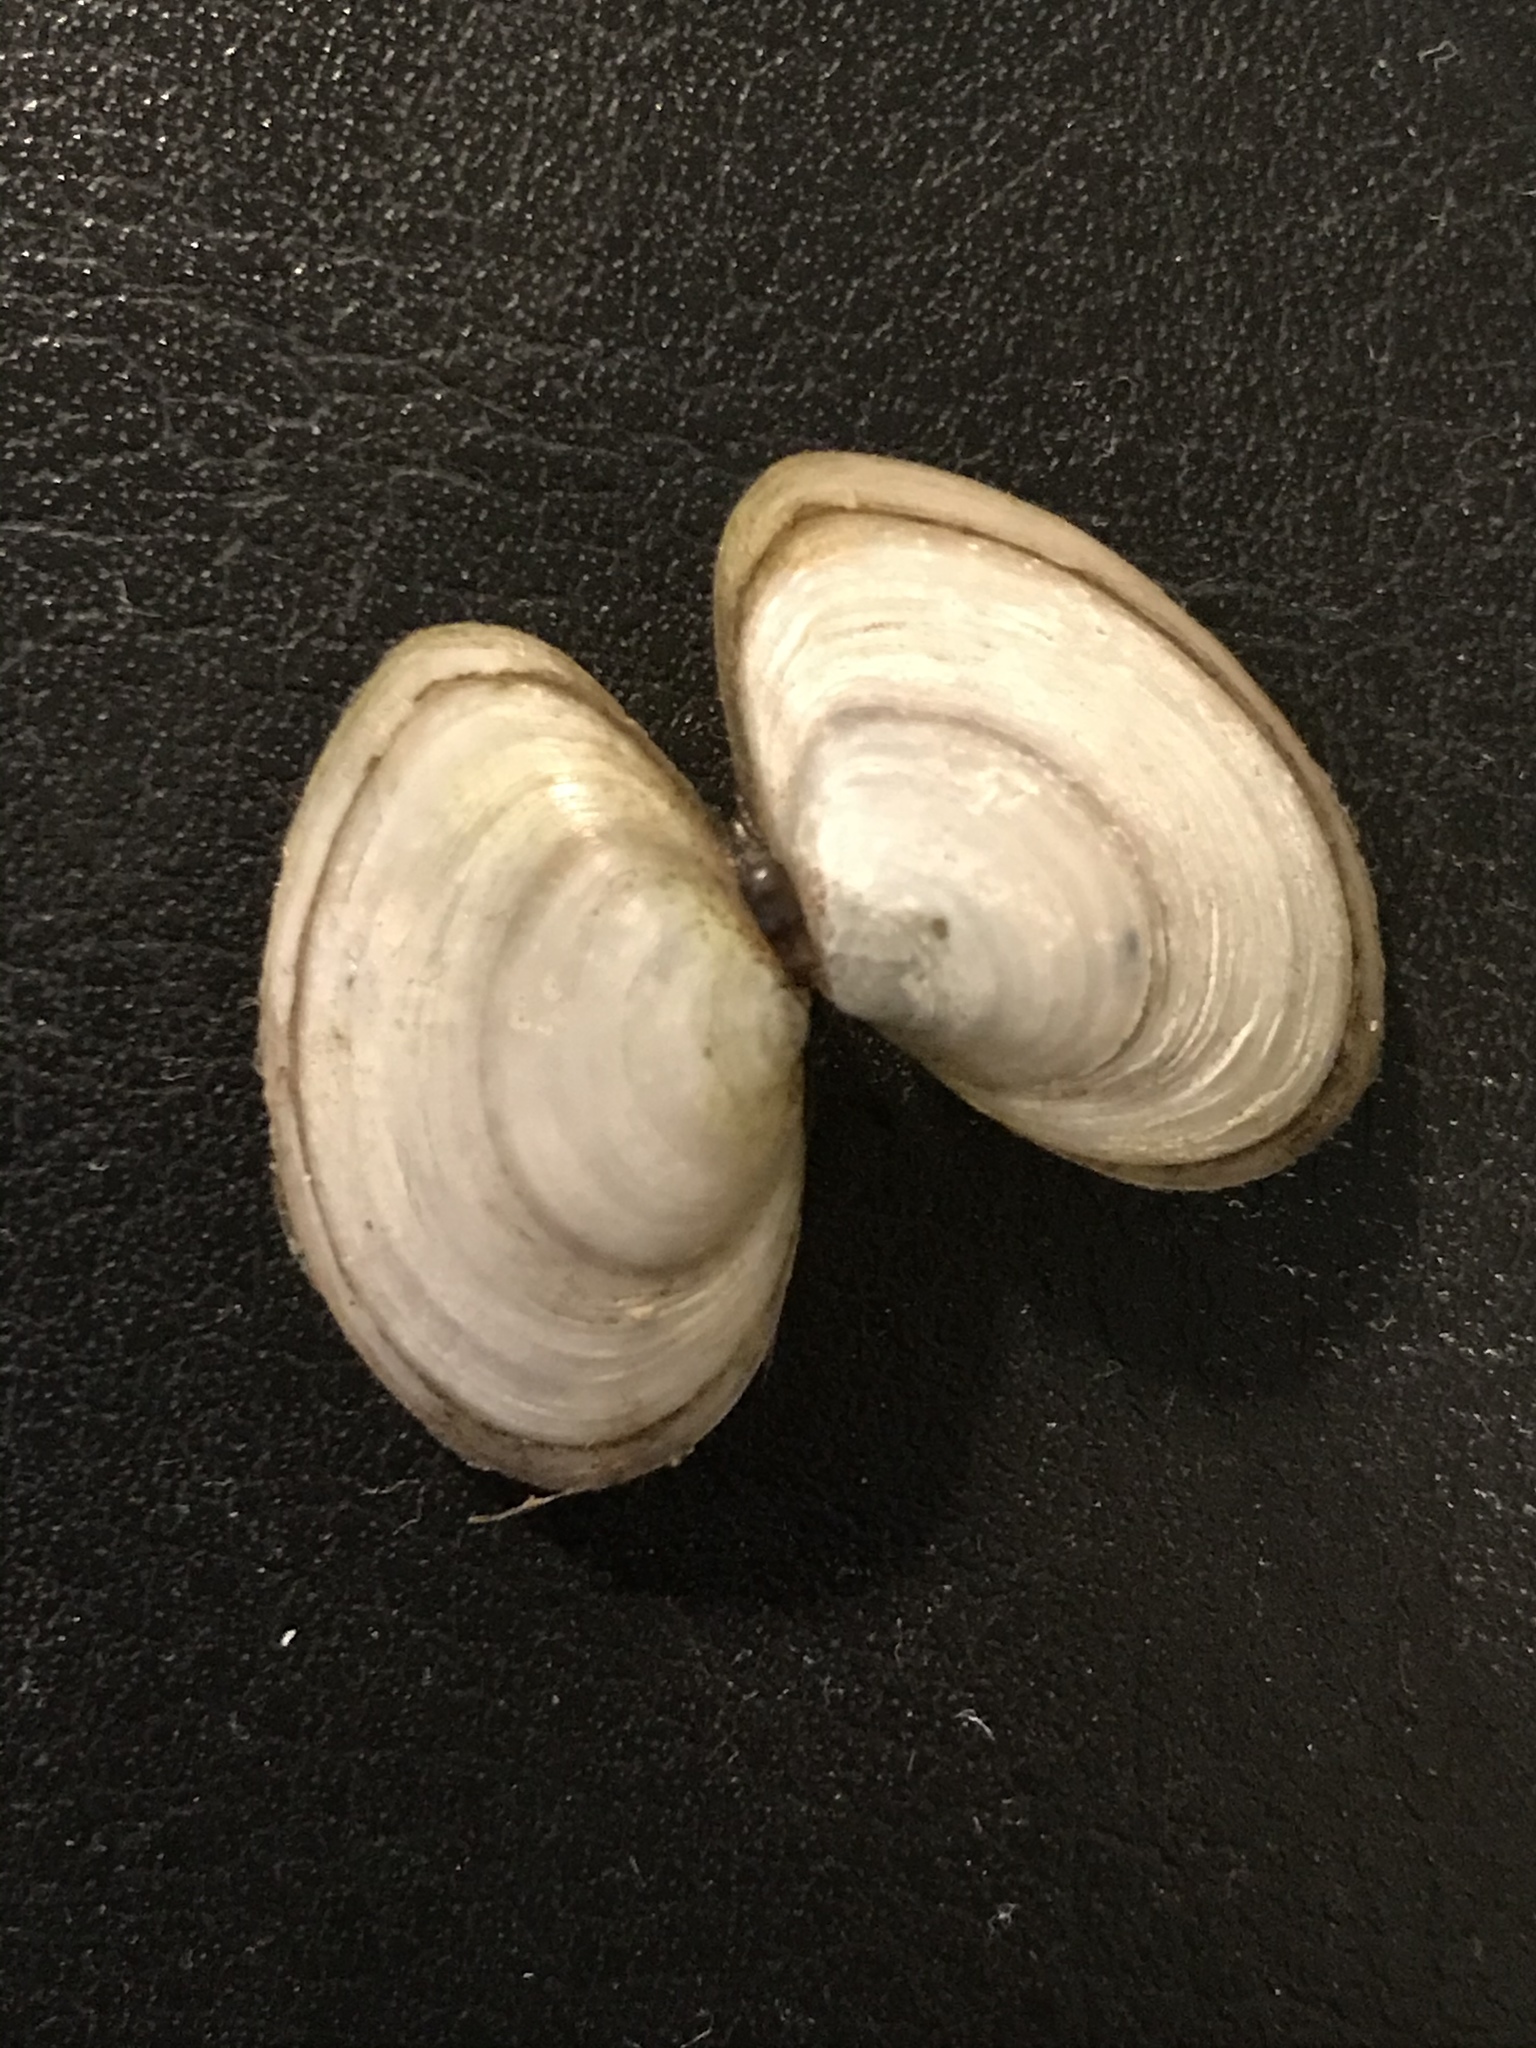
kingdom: Animalia
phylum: Mollusca
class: Bivalvia
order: Cardiida
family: Tellinidae
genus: Macoma
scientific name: Macoma petalum
